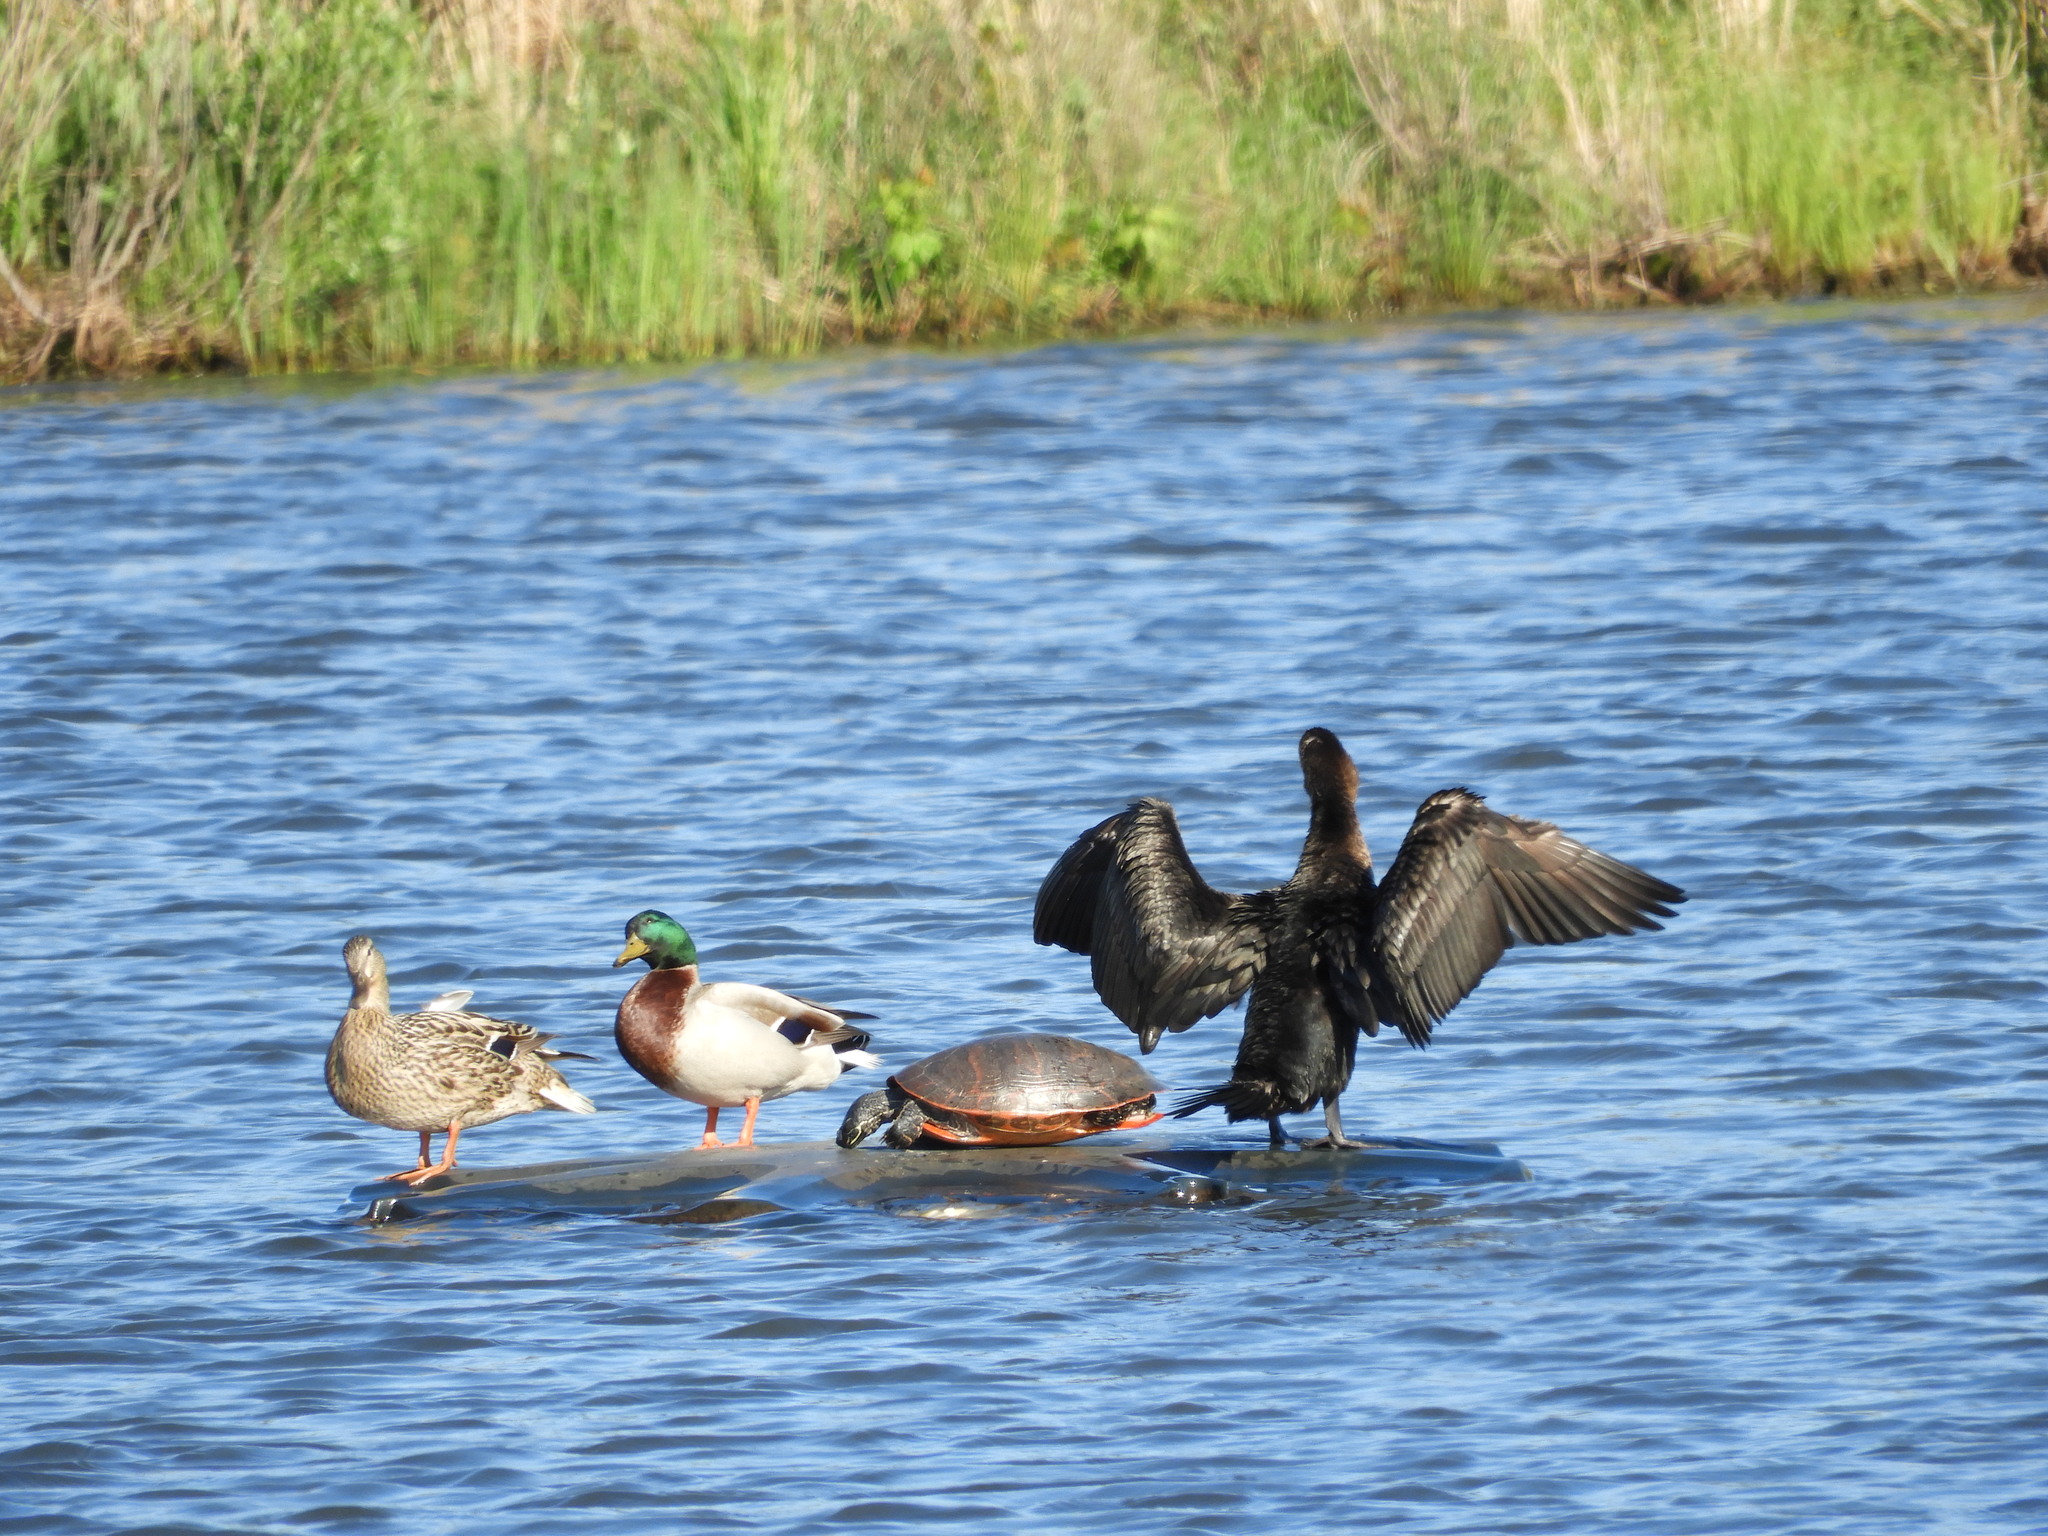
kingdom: Animalia
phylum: Chordata
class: Aves
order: Suliformes
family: Phalacrocoracidae
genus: Phalacrocorax
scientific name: Phalacrocorax auritus
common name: Double-crested cormorant
